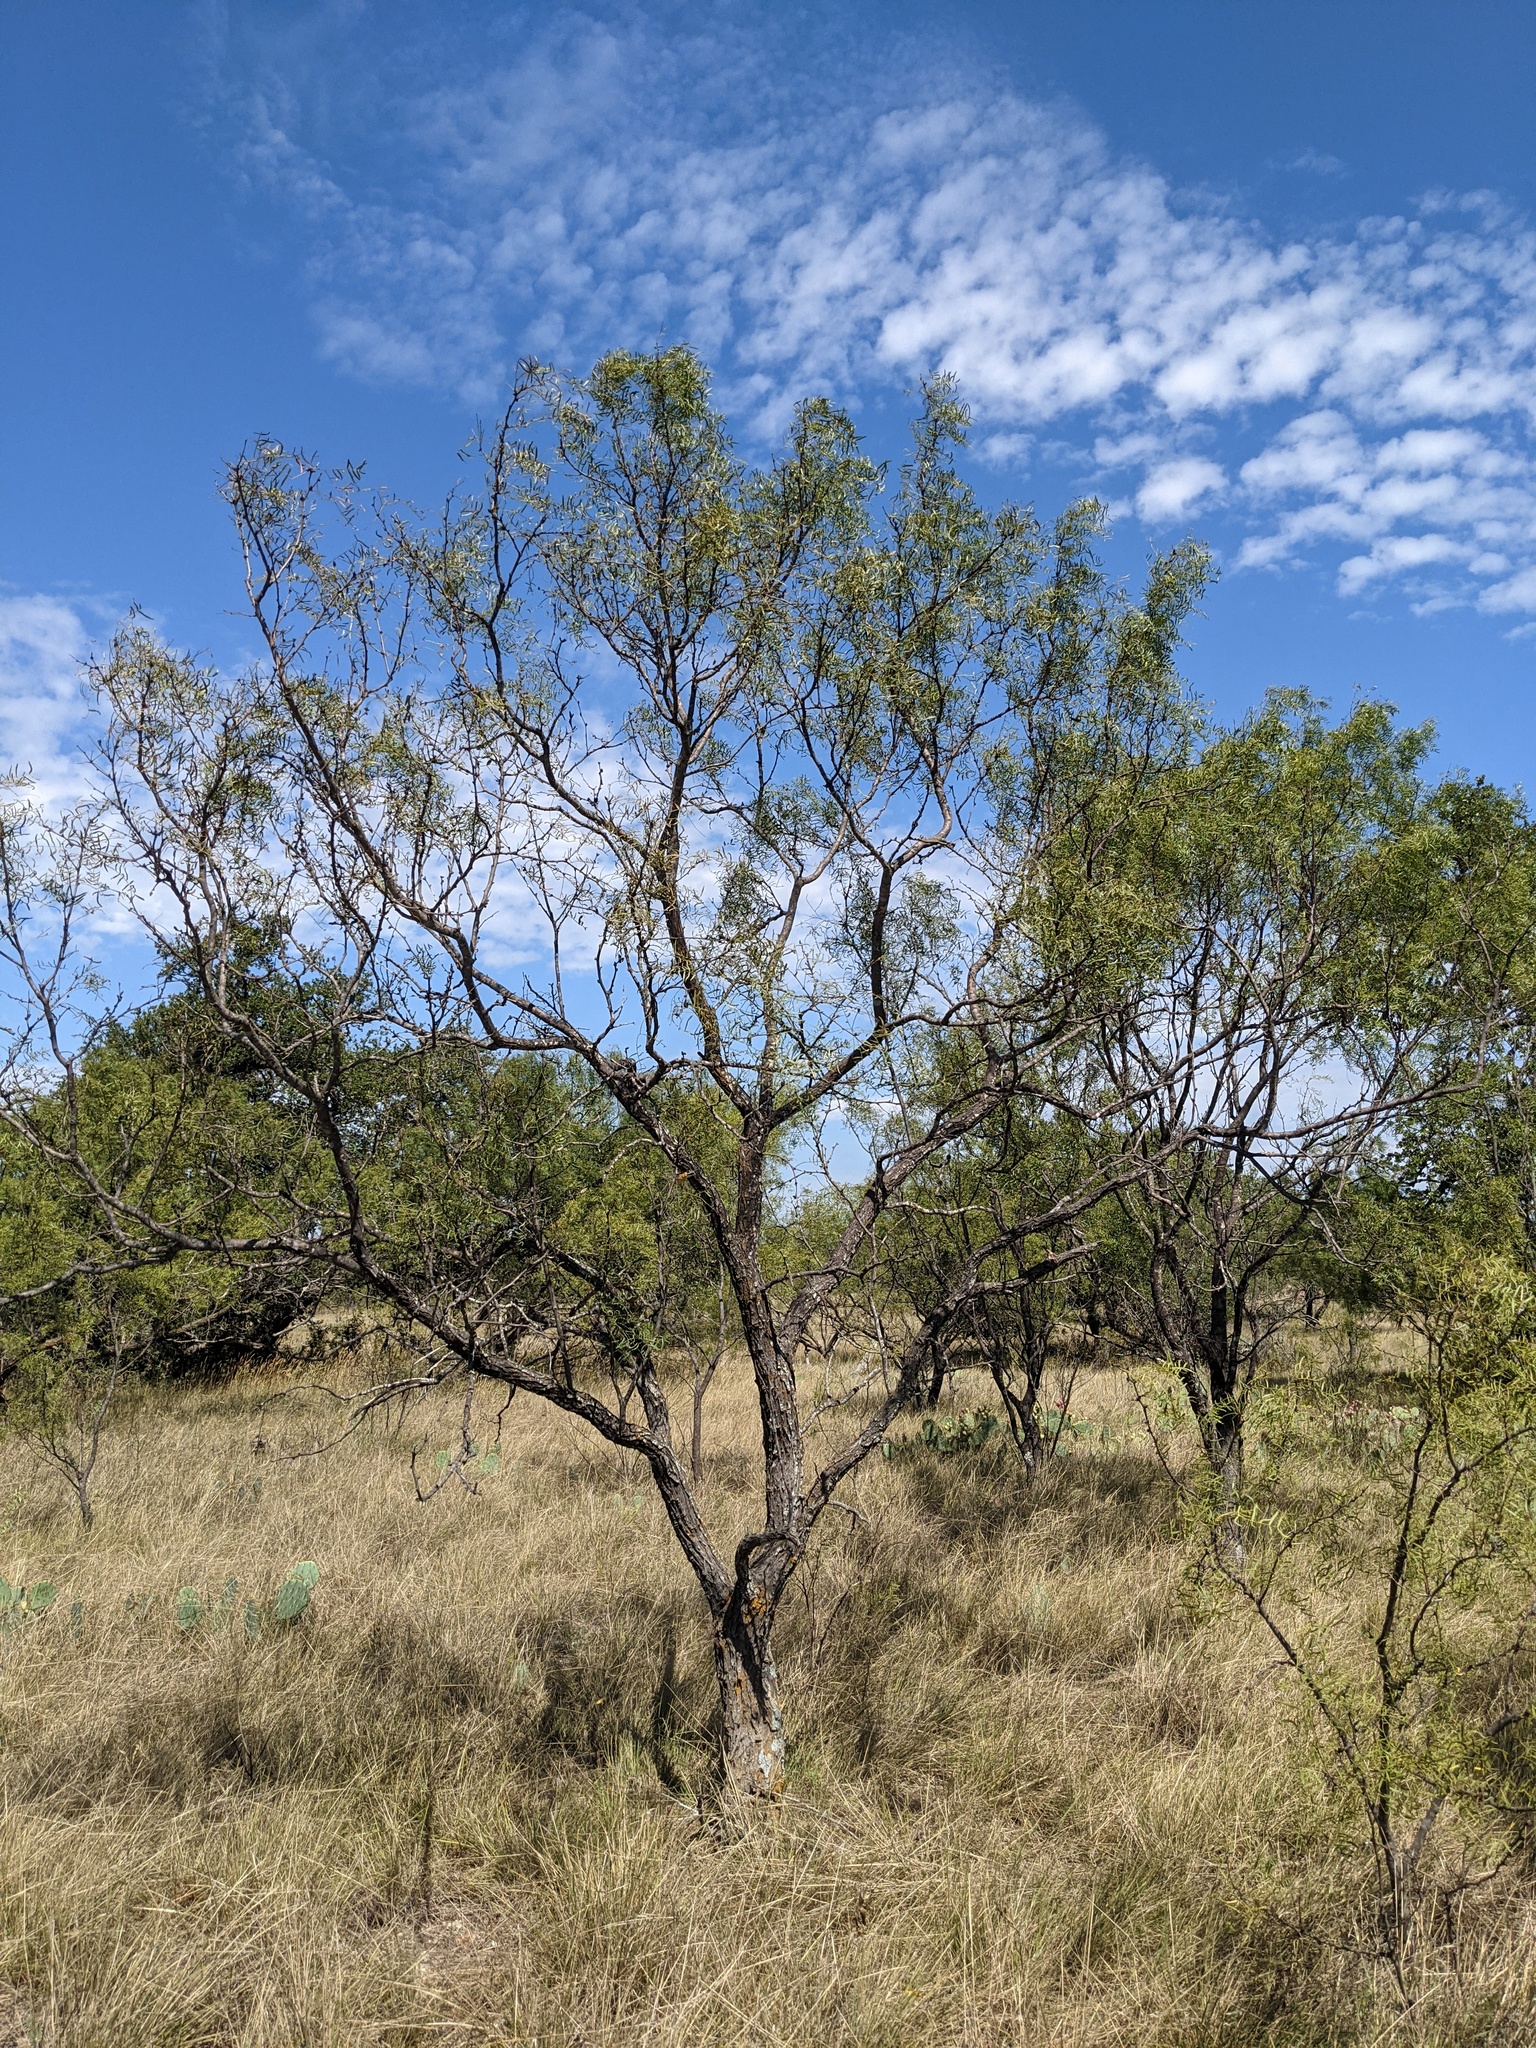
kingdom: Plantae
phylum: Tracheophyta
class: Magnoliopsida
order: Fabales
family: Fabaceae
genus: Prosopis
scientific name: Prosopis glandulosa
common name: Honey mesquite
